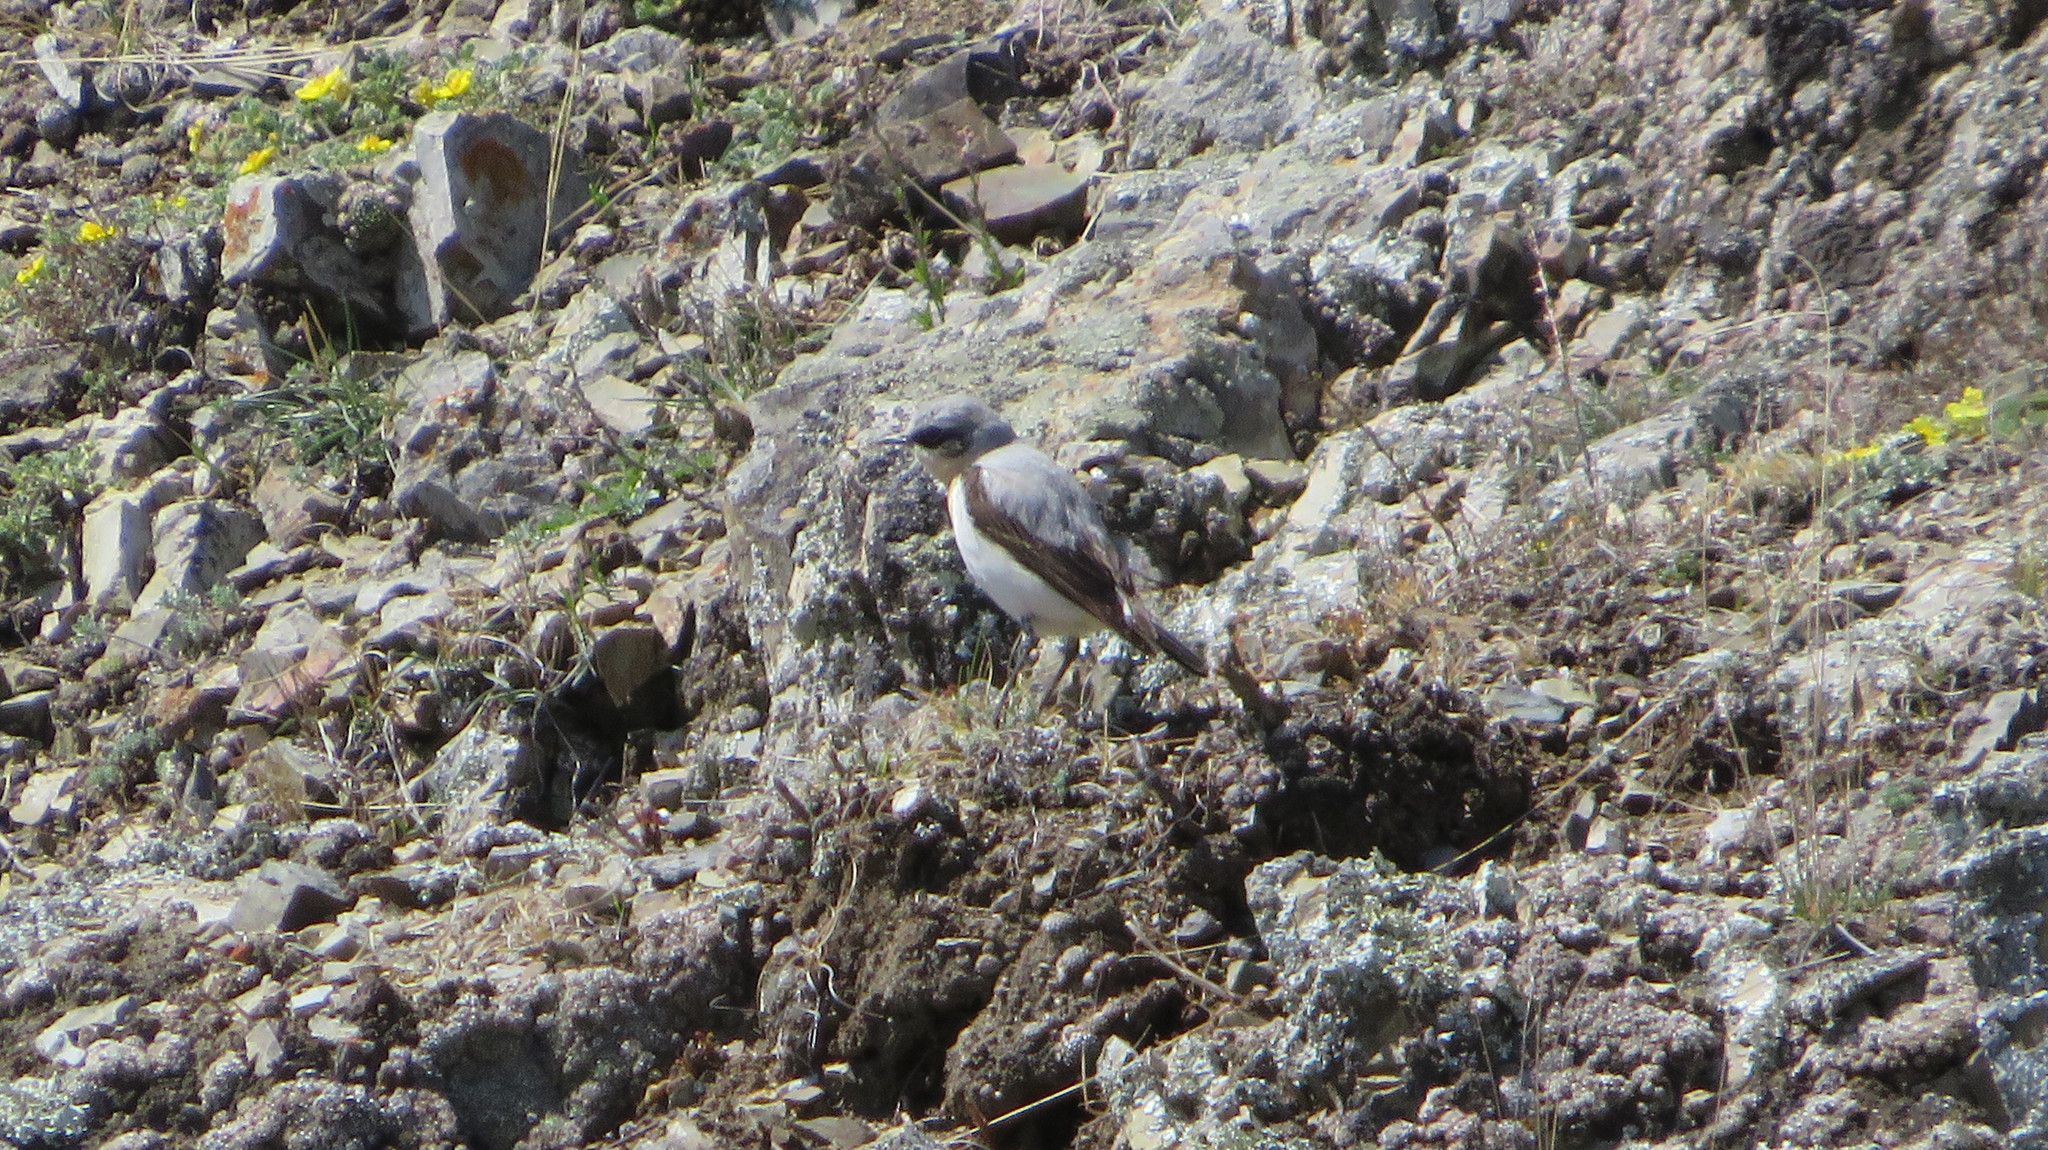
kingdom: Animalia
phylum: Chordata
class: Aves
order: Passeriformes
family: Muscicapidae
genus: Oenanthe
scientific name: Oenanthe oenanthe
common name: Northern wheatear
